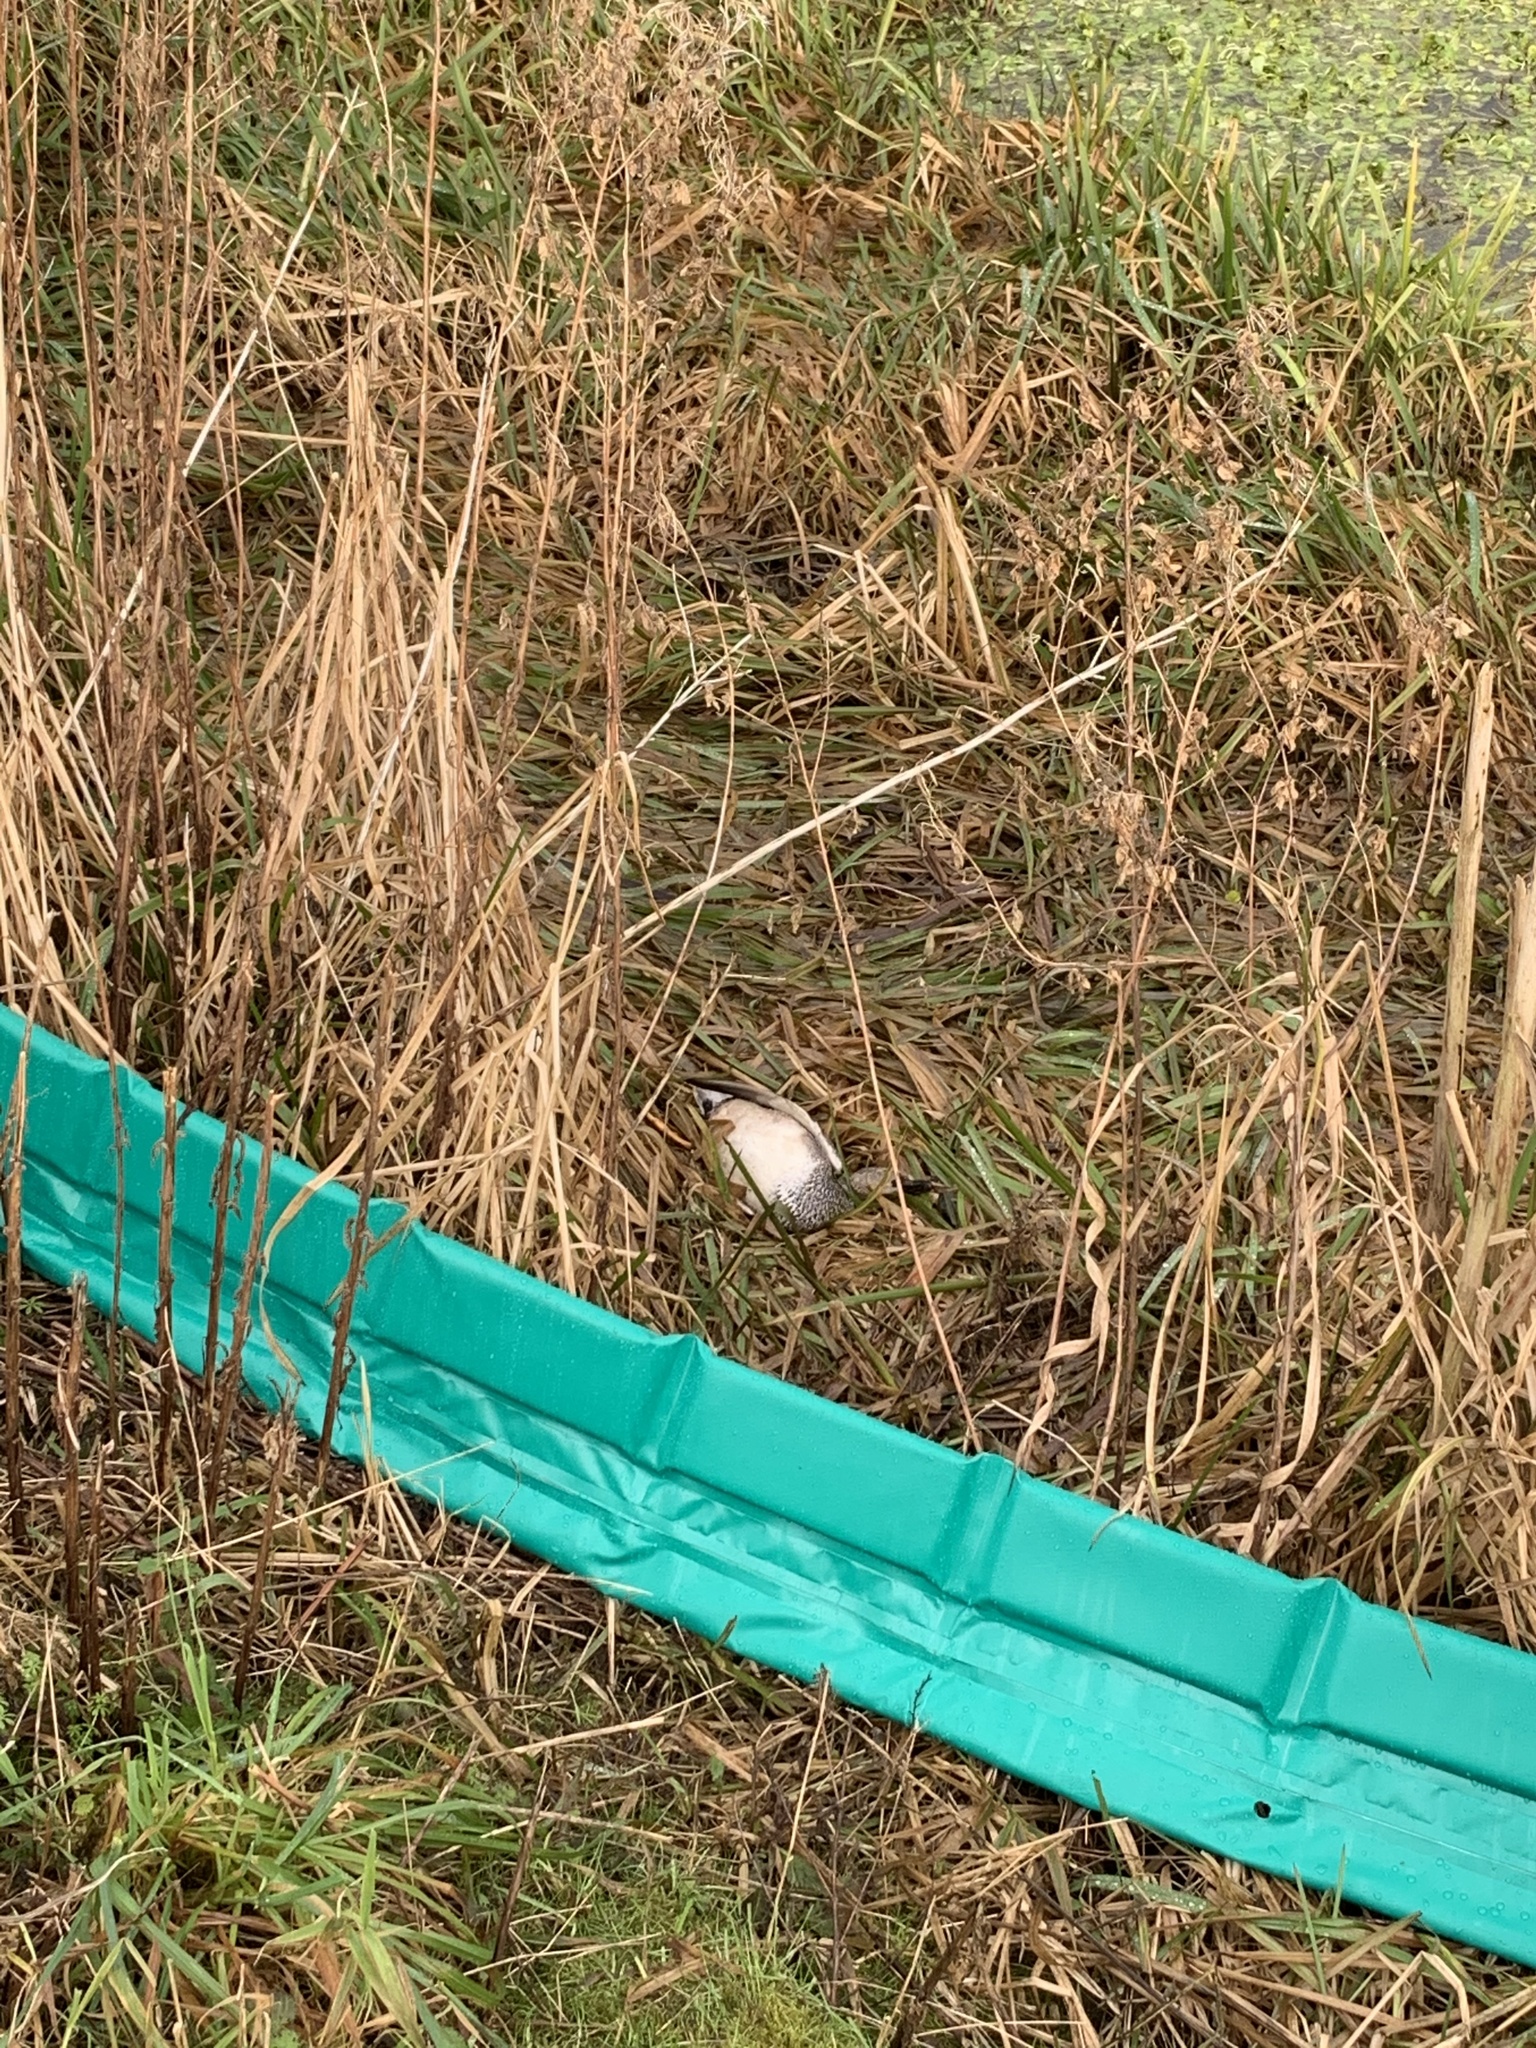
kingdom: Animalia
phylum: Chordata
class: Aves
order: Anseriformes
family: Anatidae
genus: Mareca
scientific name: Mareca strepera
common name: Gadwall
